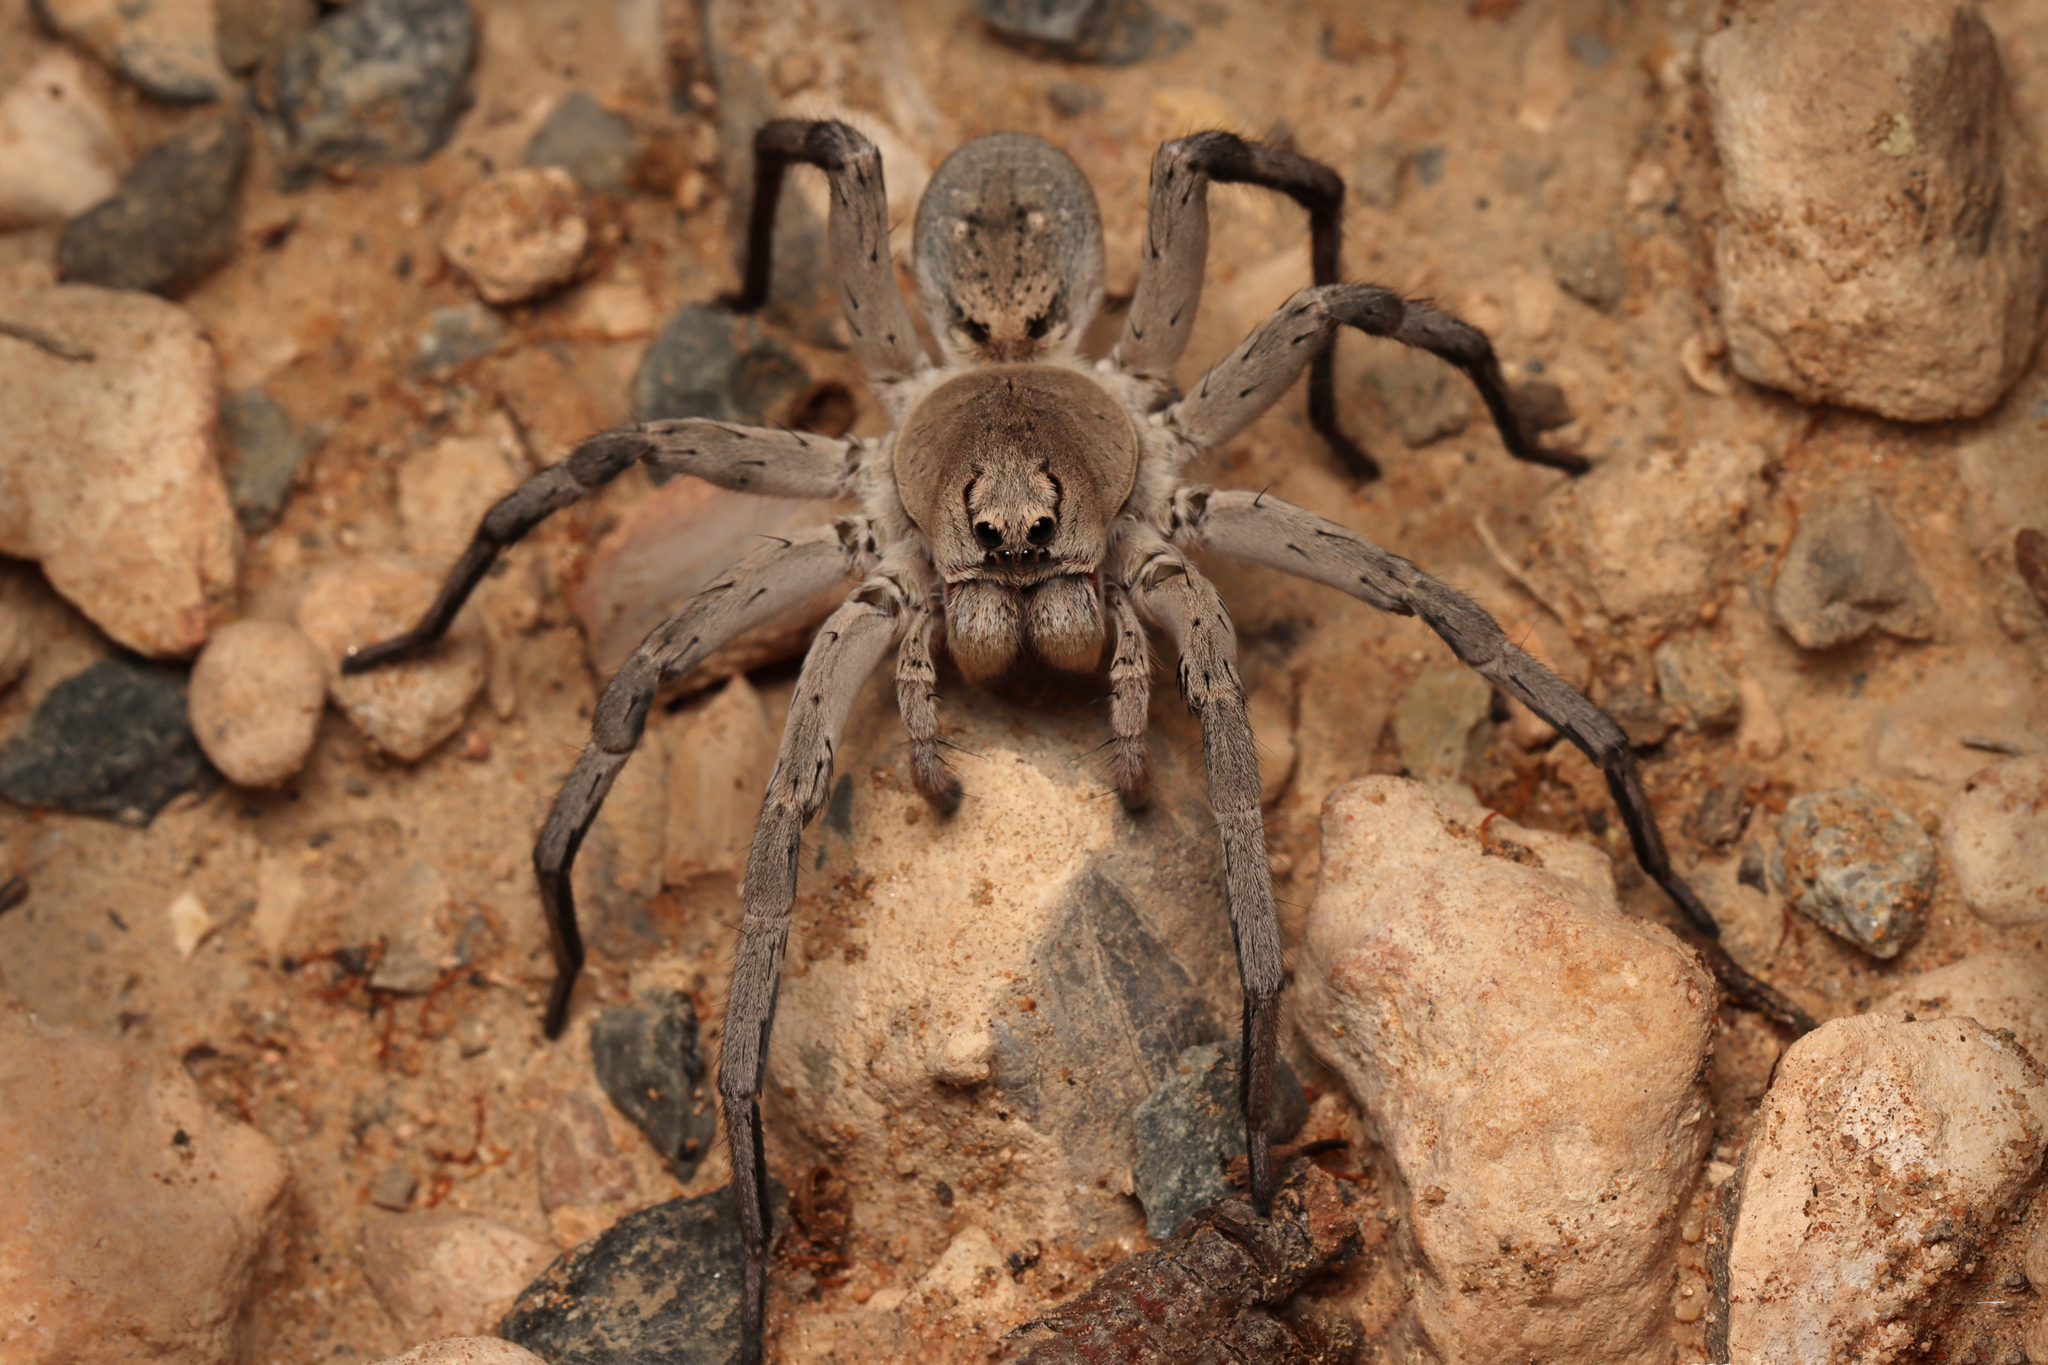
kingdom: Animalia
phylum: Arthropoda
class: Arachnida
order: Araneae
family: Lycosidae
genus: Portacosa
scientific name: Portacosa cinerea
